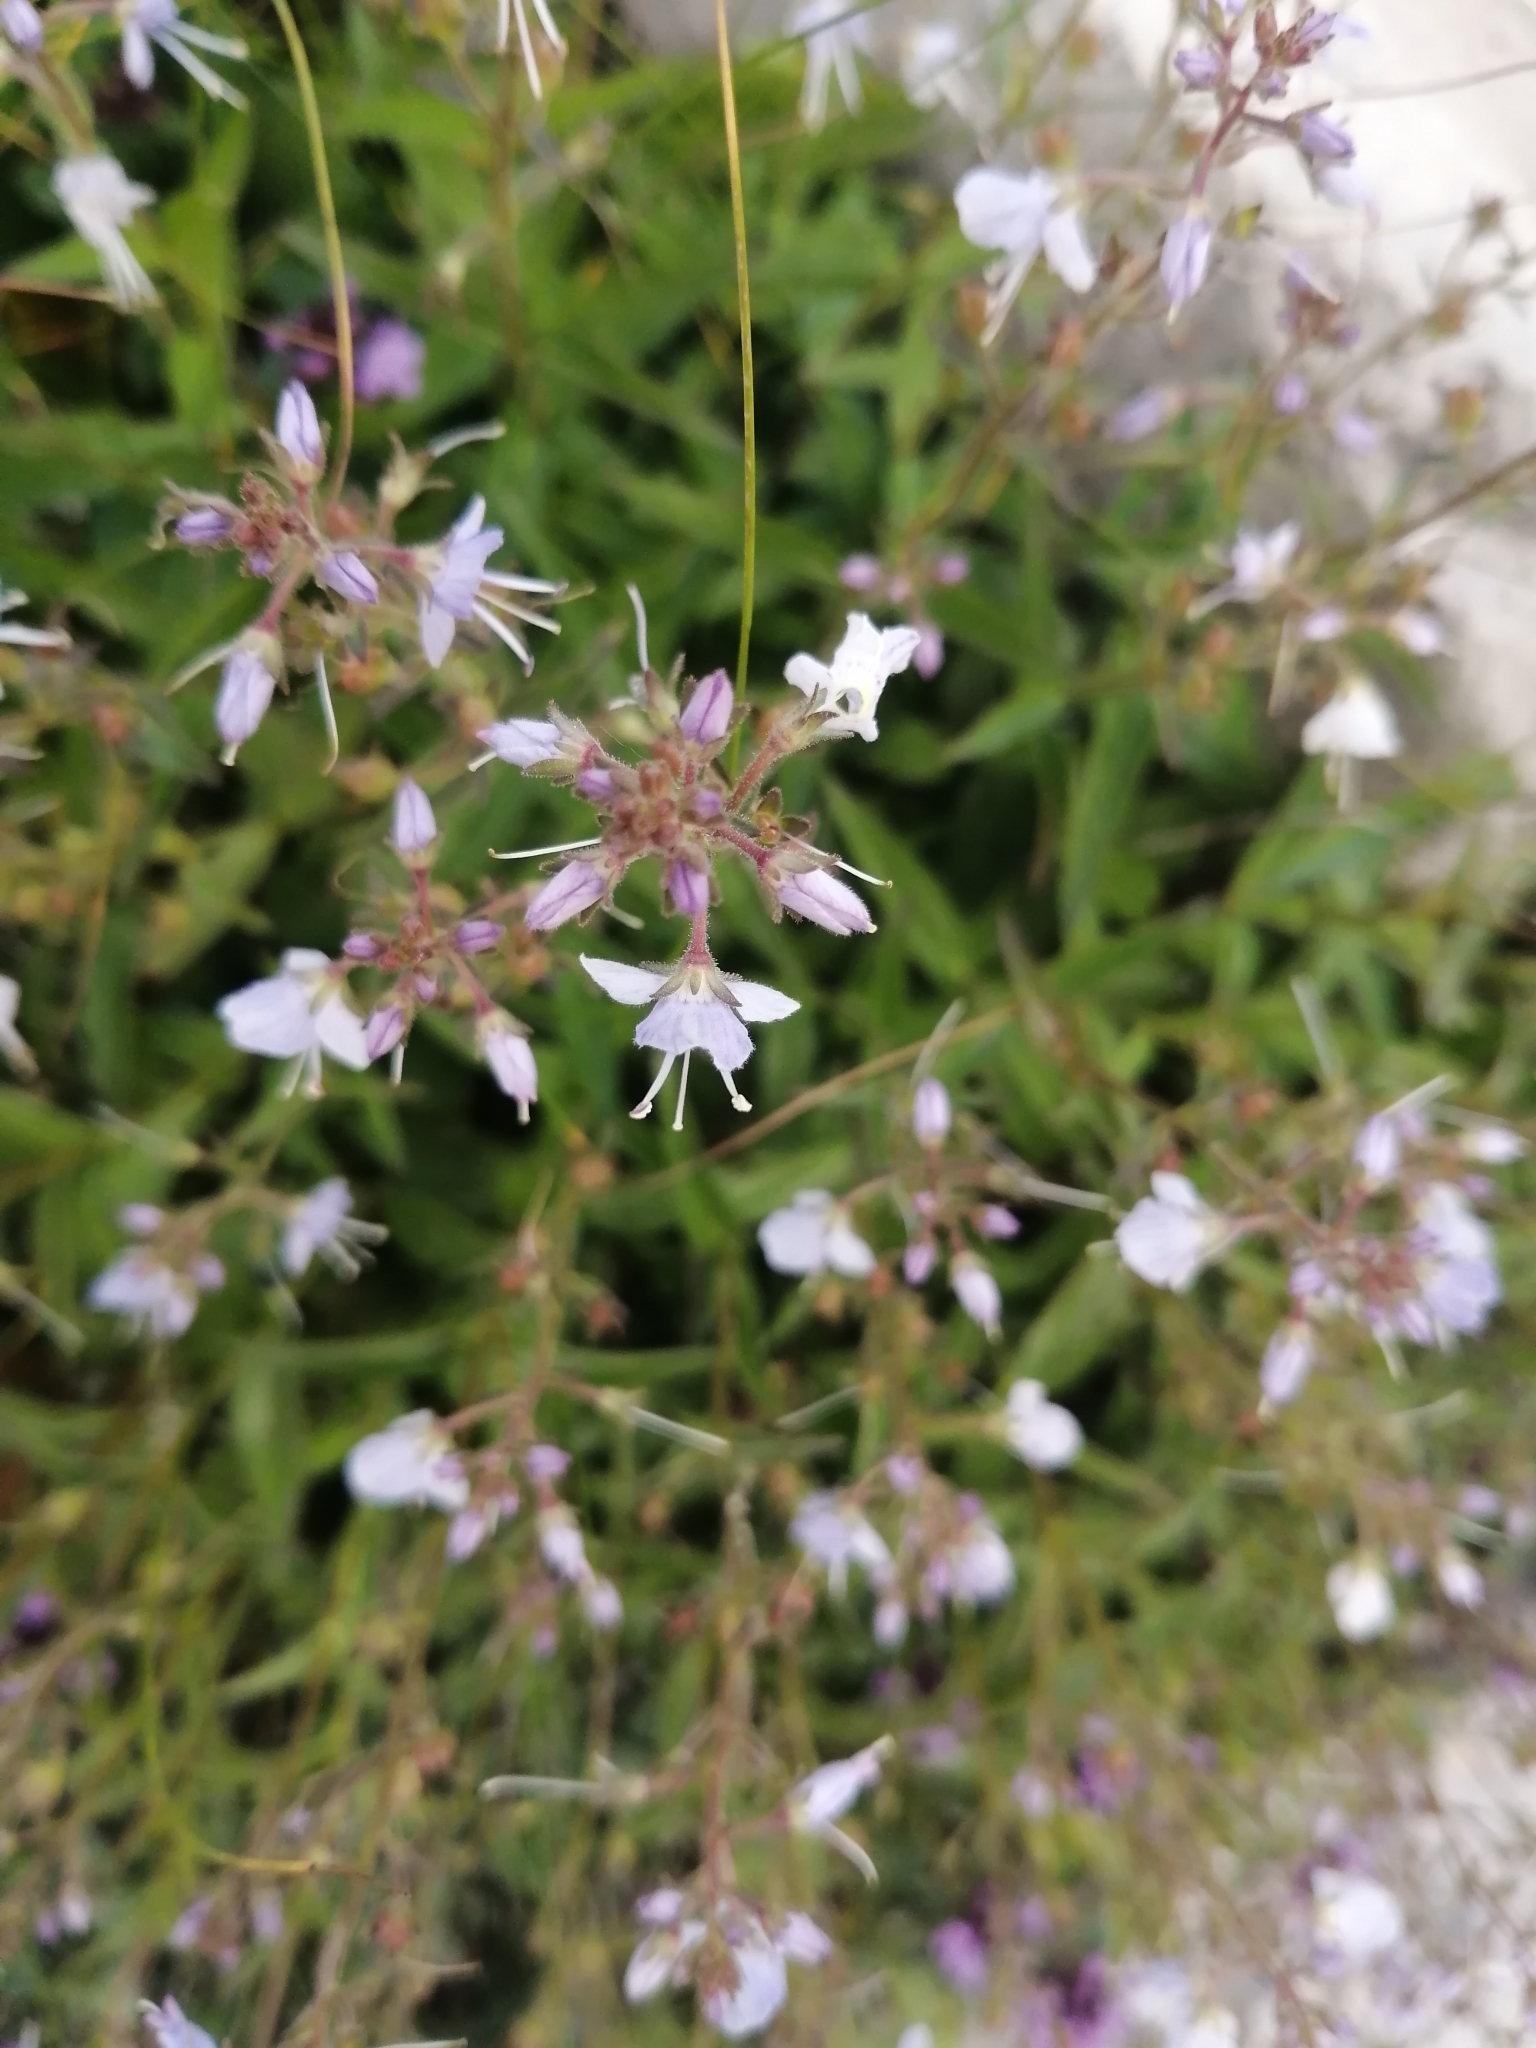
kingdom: Plantae
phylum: Tracheophyta
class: Magnoliopsida
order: Lamiales
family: Plantaginaceae
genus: Veronica
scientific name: Veronica monticola
